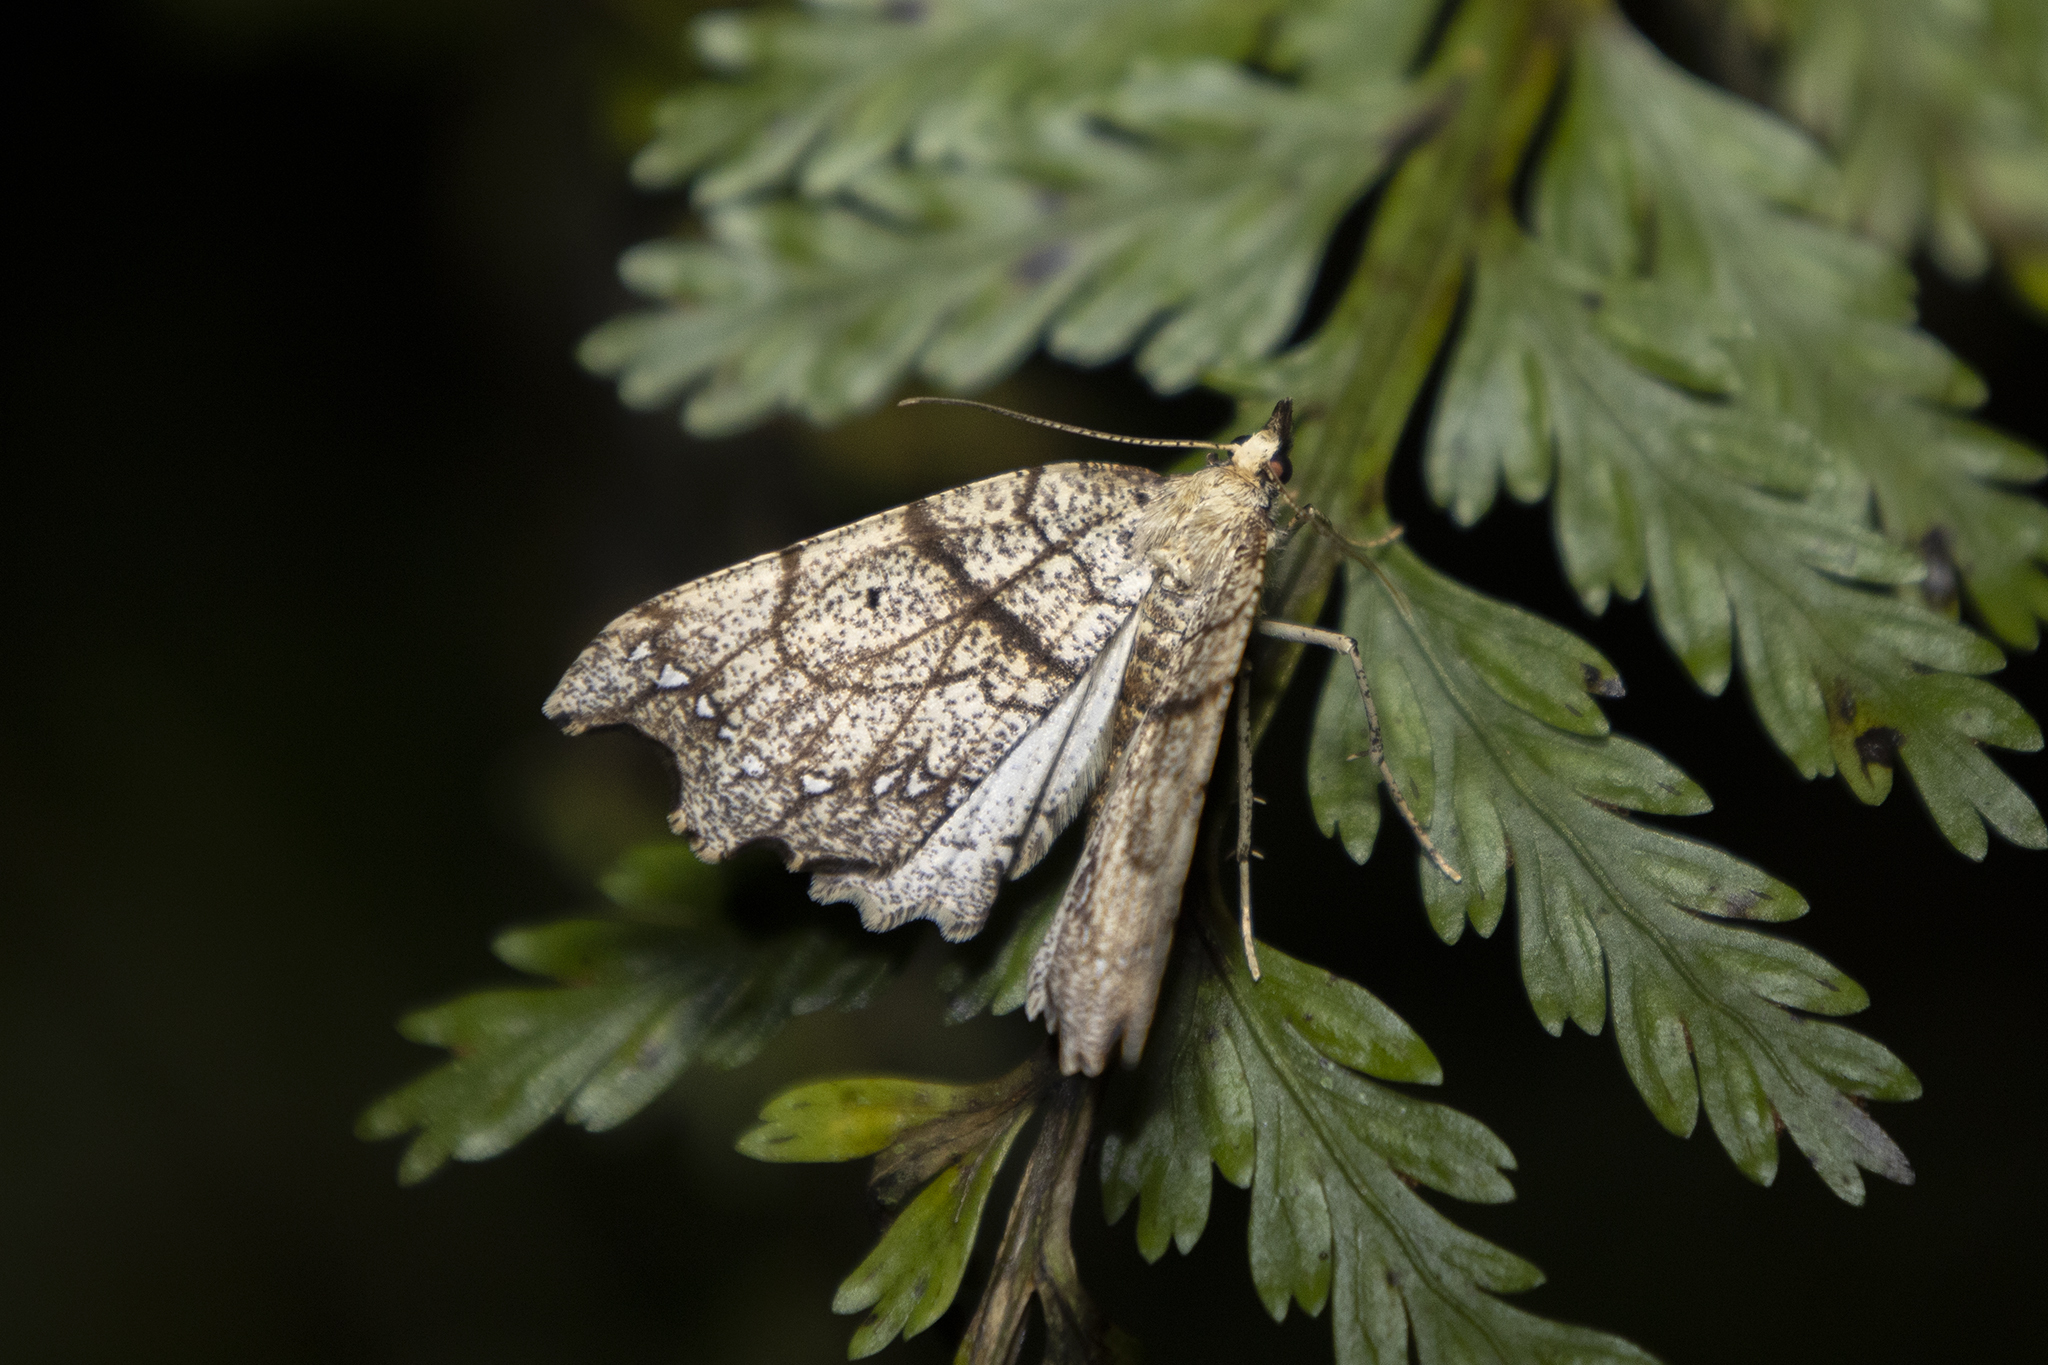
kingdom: Animalia
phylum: Arthropoda
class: Insecta
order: Lepidoptera
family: Geometridae
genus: Chalastra
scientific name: Chalastra pellurgata
